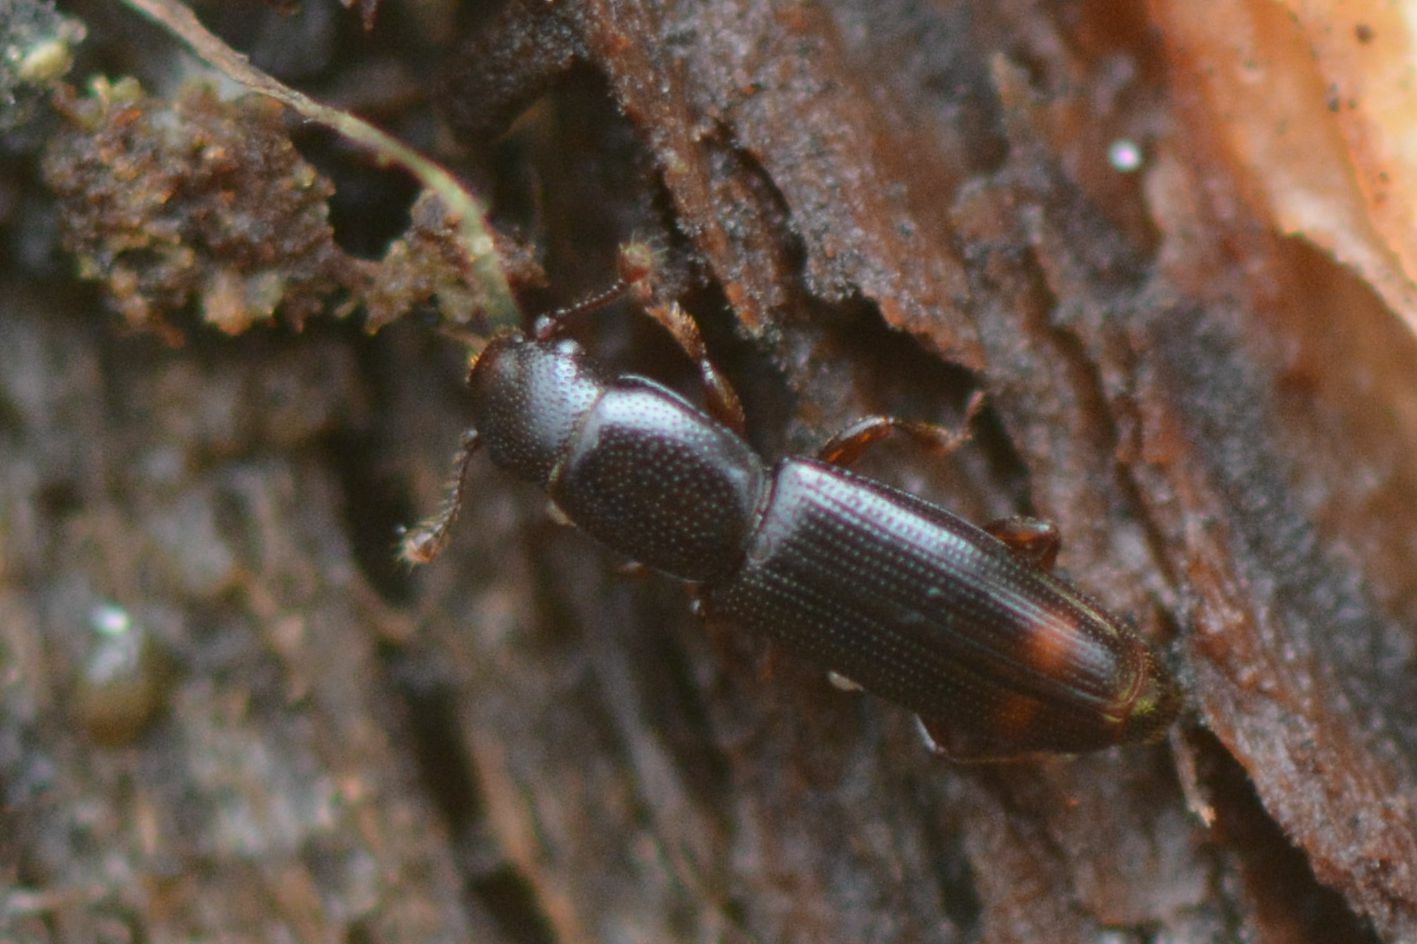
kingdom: Animalia
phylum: Arthropoda
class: Insecta
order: Coleoptera
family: Monotomidae
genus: Rhizophagus
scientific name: Rhizophagus bipustulatus
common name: Root-eating beetle
